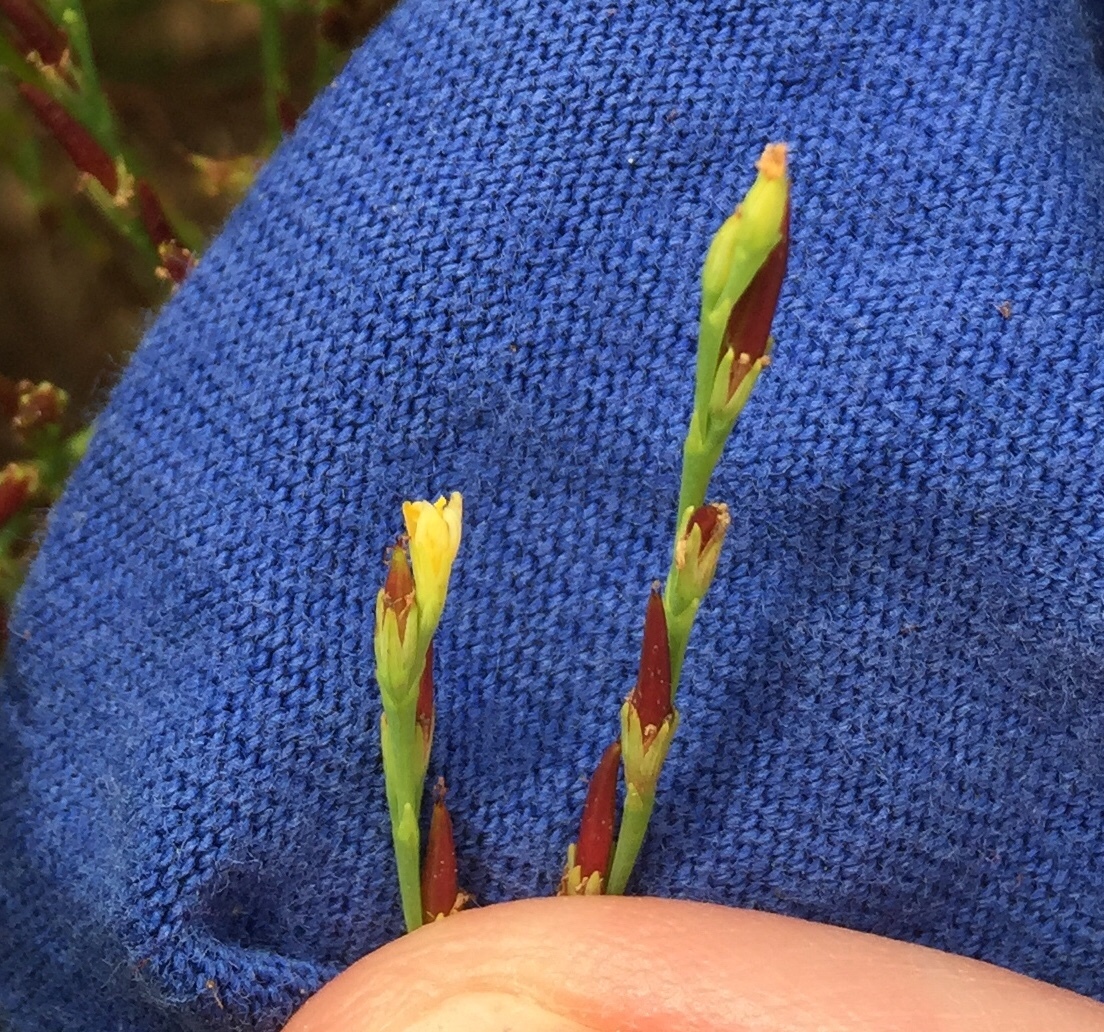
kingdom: Plantae
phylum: Tracheophyta
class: Magnoliopsida
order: Malpighiales
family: Hypericaceae
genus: Hypericum
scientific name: Hypericum gentianoides
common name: Gentian-leaved st. john's-wort
